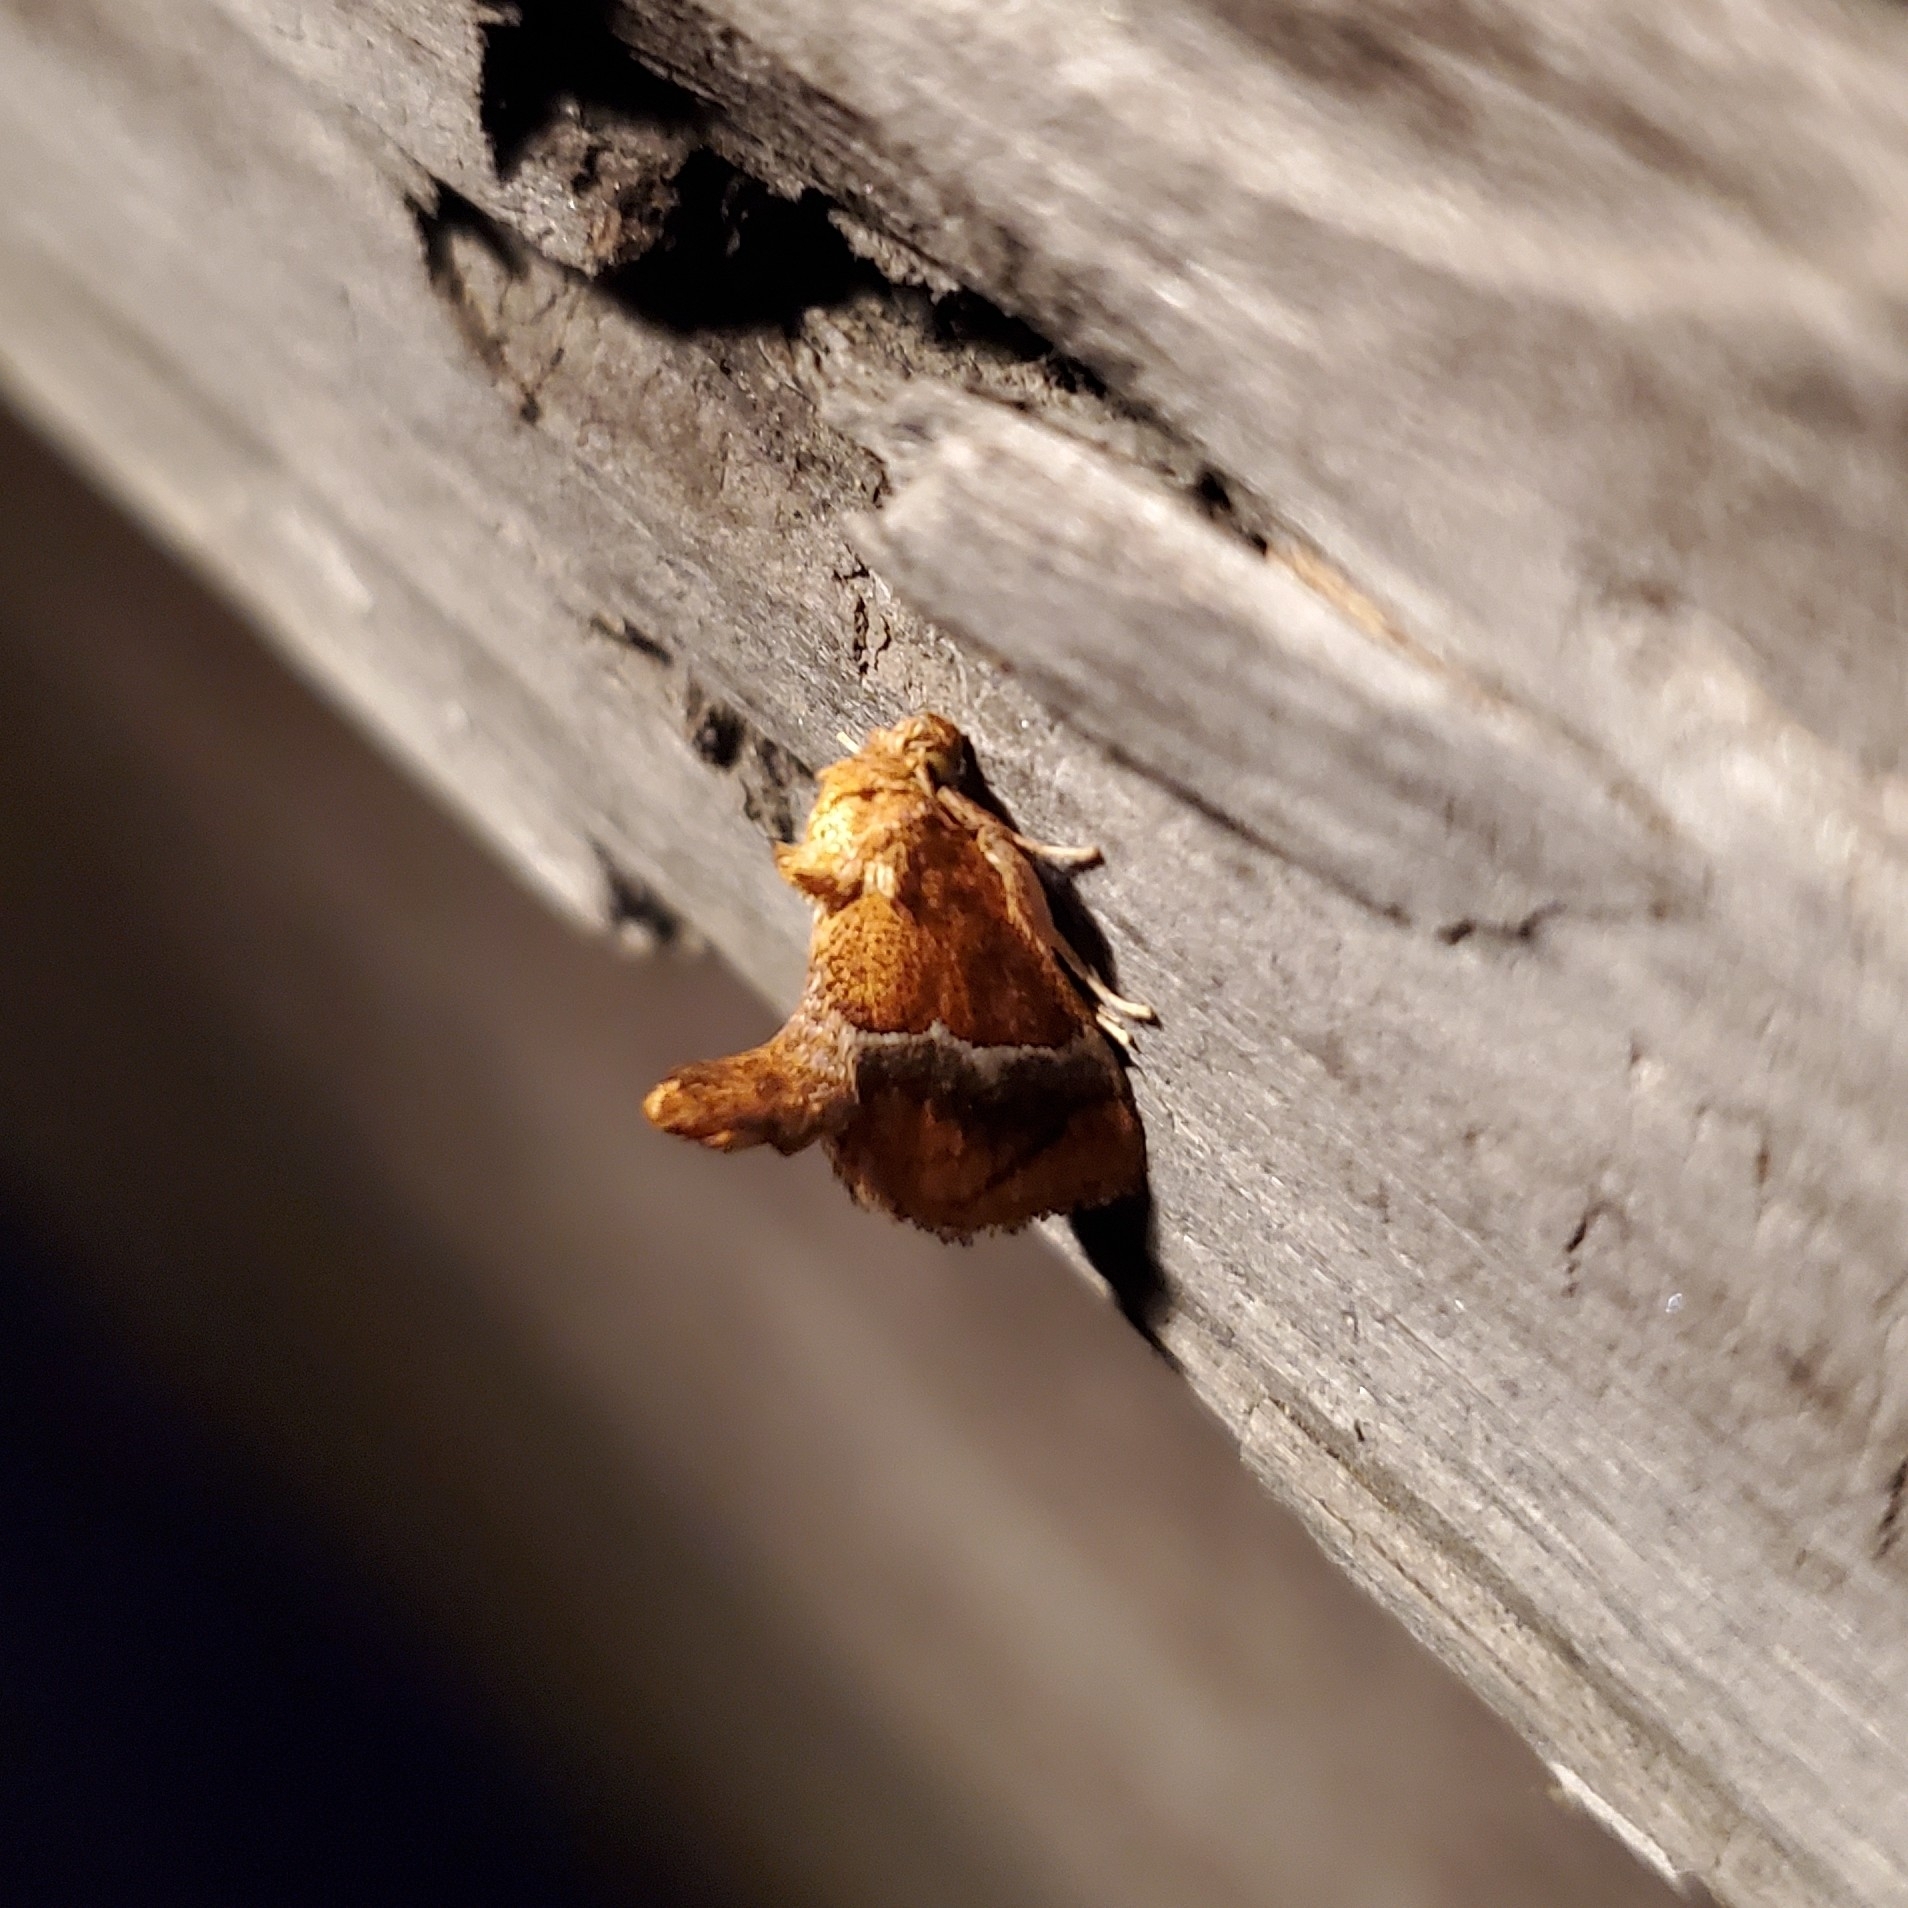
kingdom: Animalia
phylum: Arthropoda
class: Insecta
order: Lepidoptera
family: Limacodidae
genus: Lithacodes
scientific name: Lithacodes fasciola
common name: Yellow-shouldered slug moth
